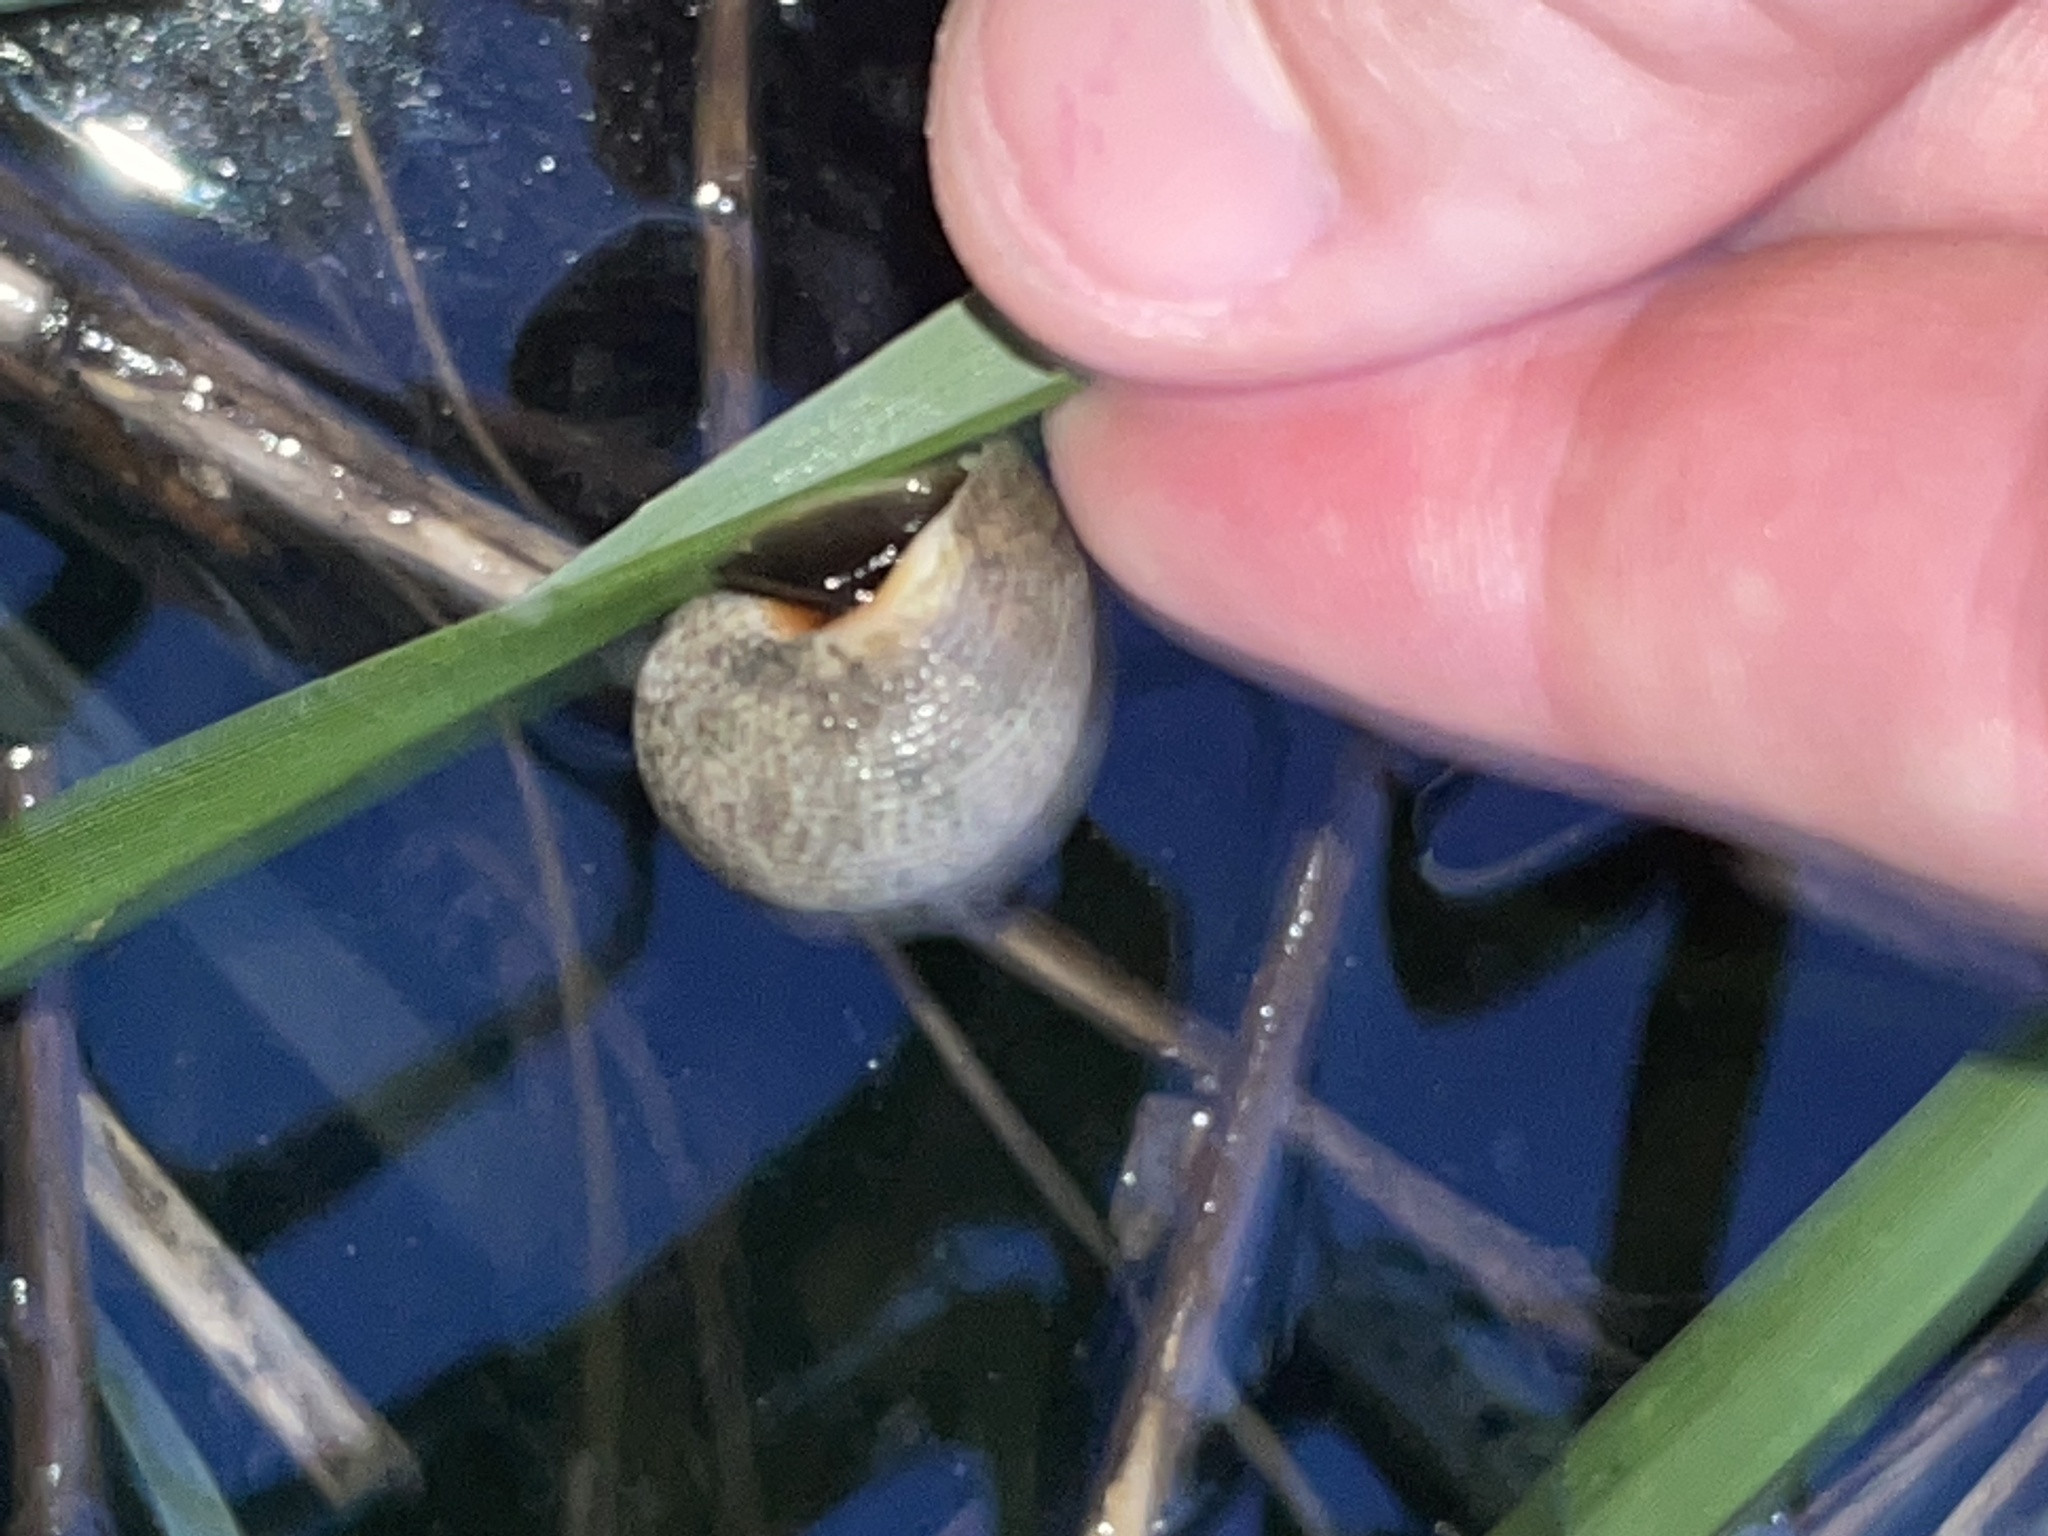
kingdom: Animalia
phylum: Mollusca
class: Gastropoda
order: Littorinimorpha
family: Littorinidae
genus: Littoraria
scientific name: Littoraria irrorata
